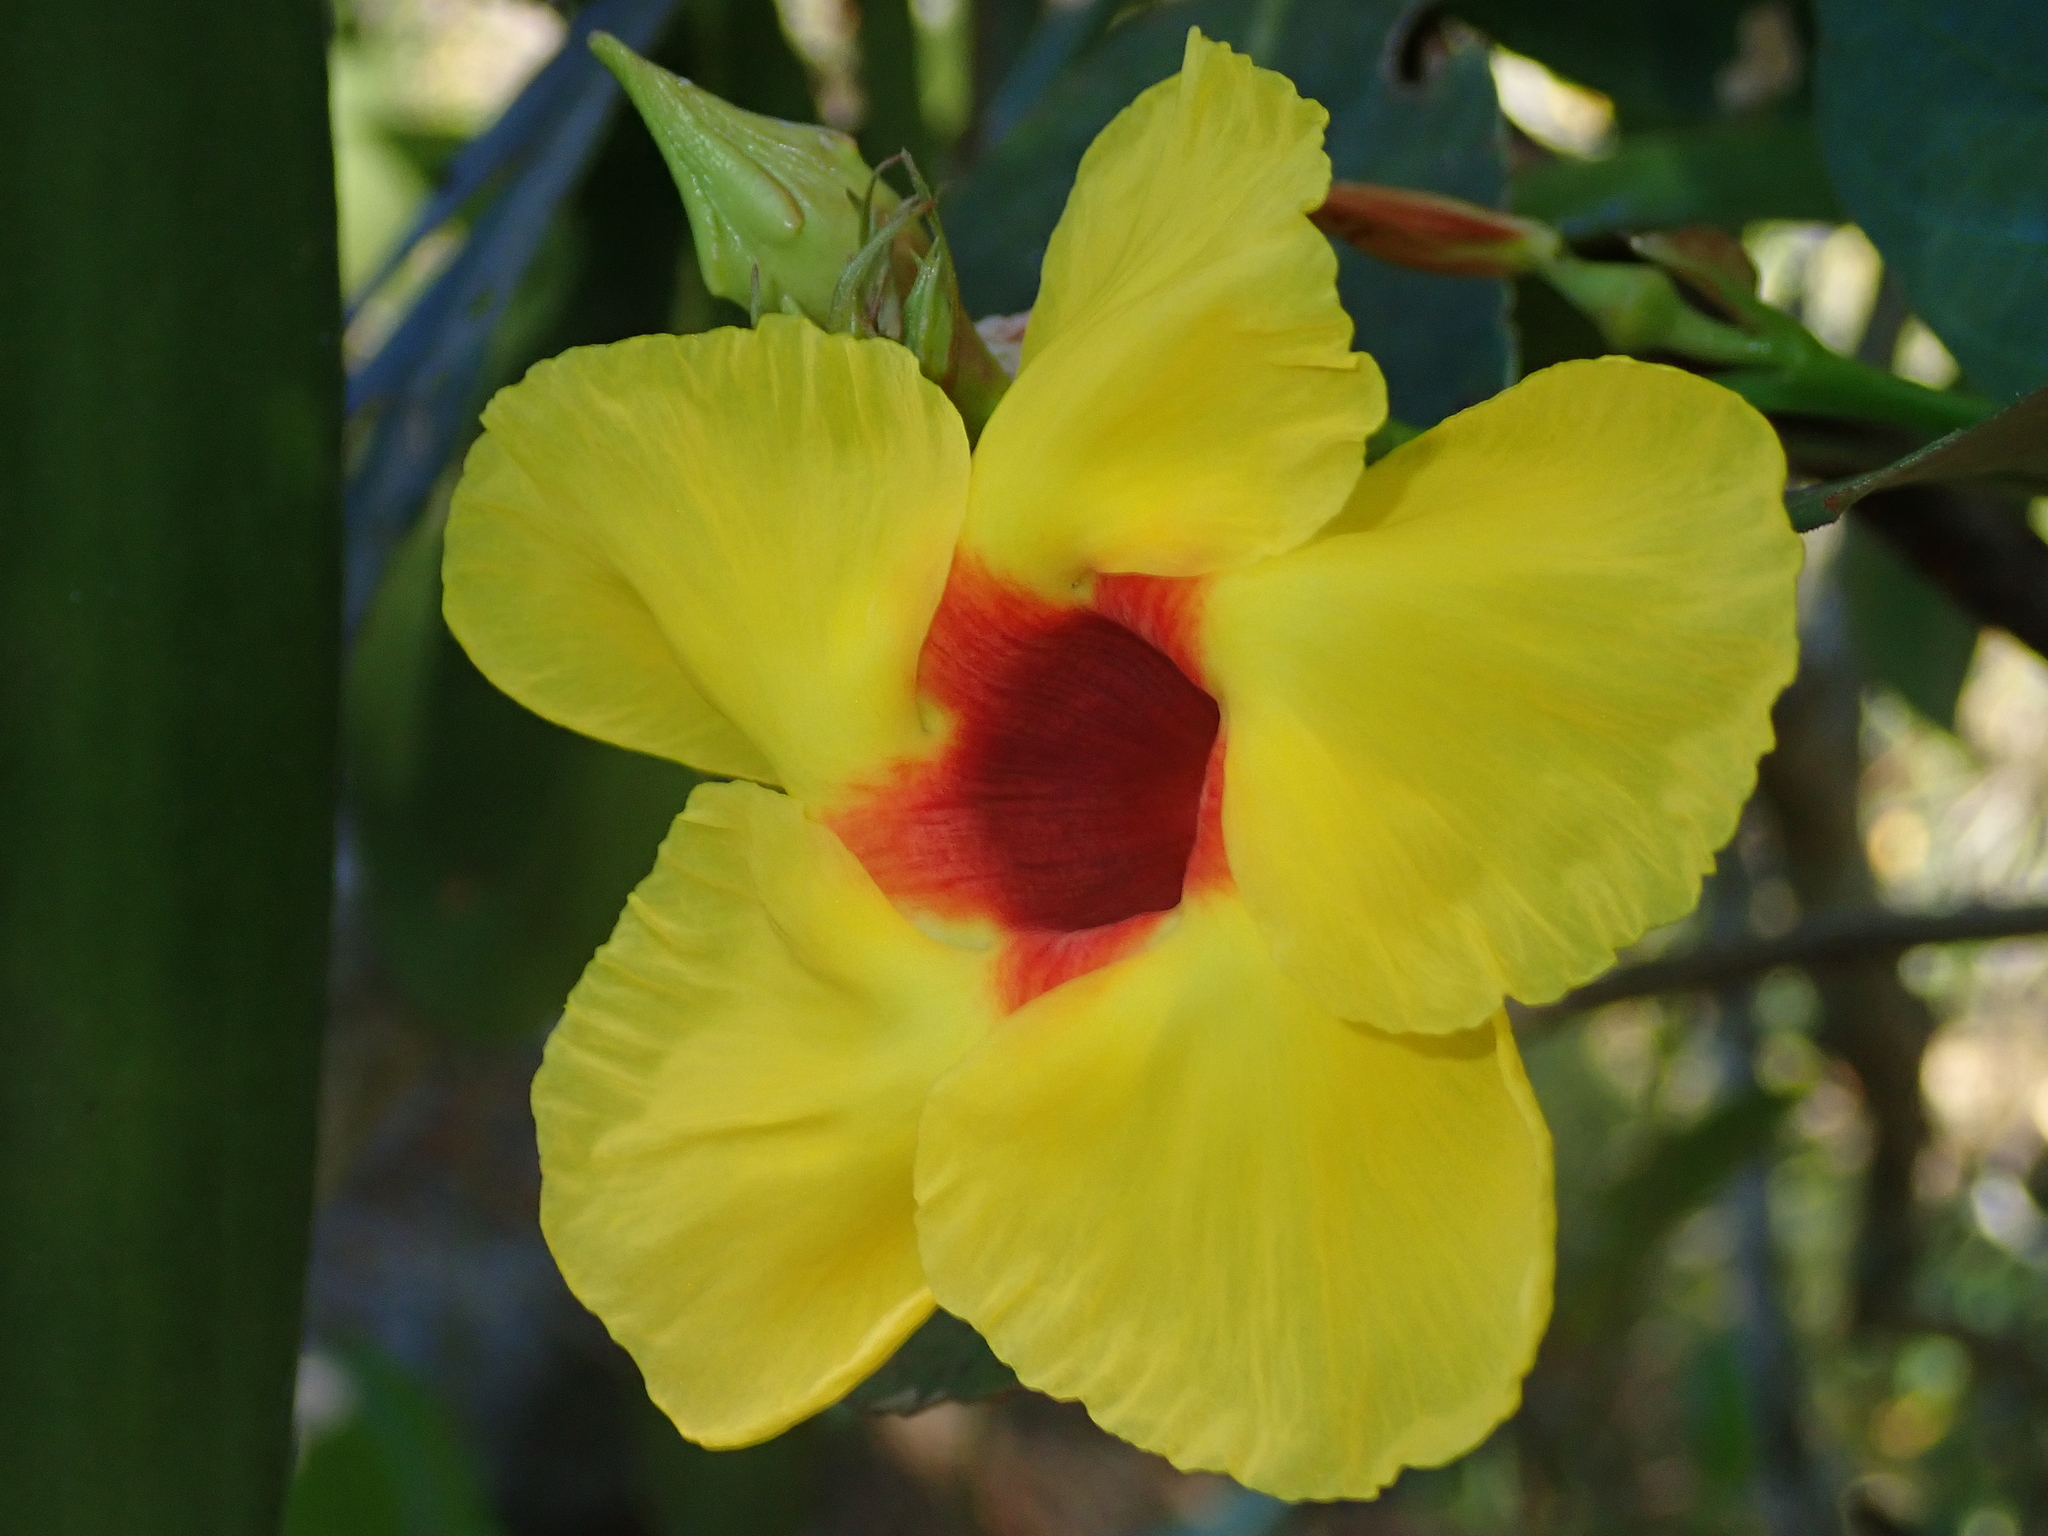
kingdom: Plantae
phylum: Tracheophyta
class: Magnoliopsida
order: Gentianales
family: Apocynaceae
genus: Mandevilla
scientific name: Mandevilla scabra
